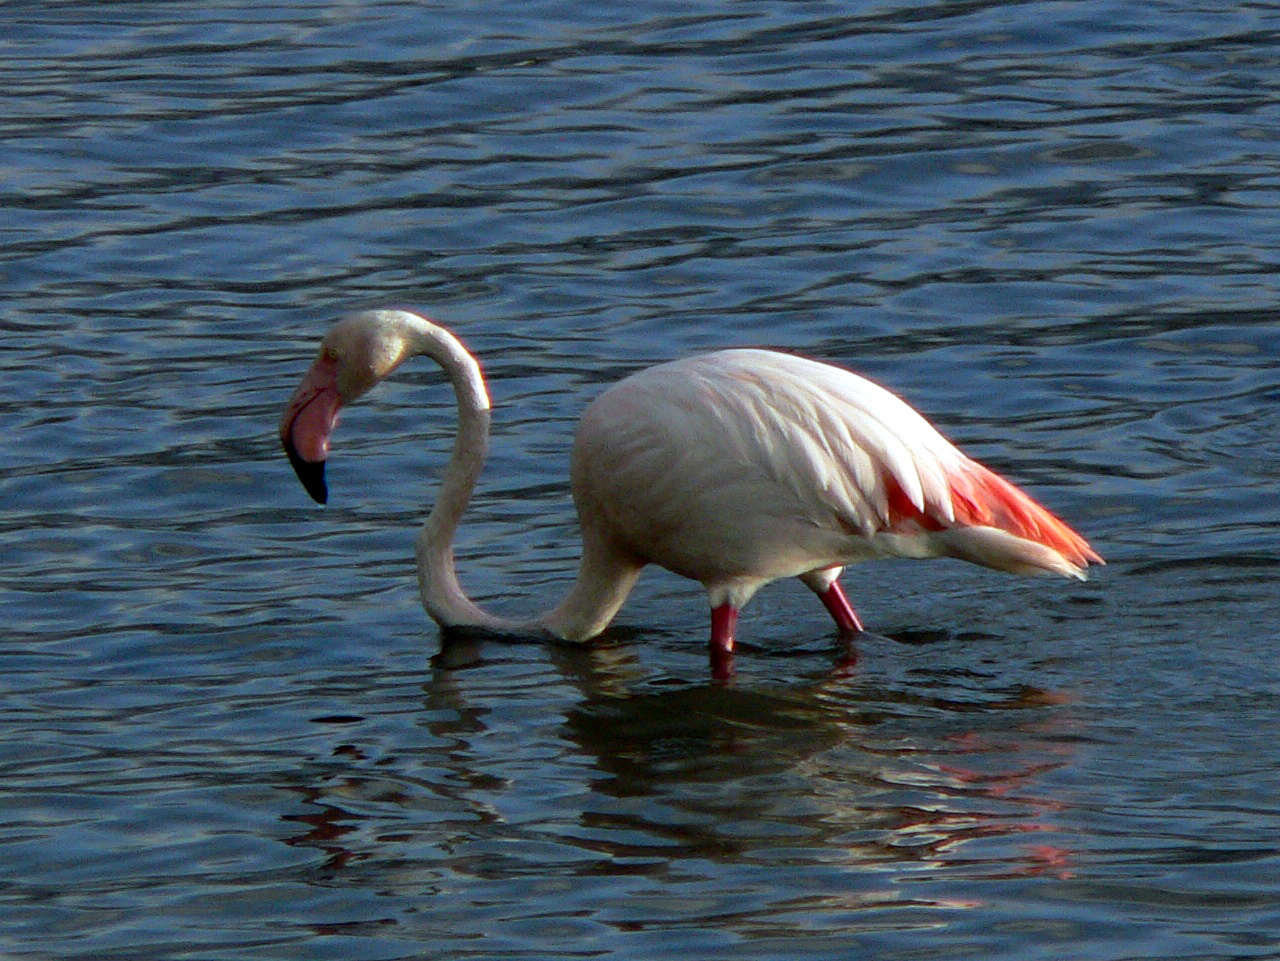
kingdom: Animalia
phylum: Chordata
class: Aves
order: Phoenicopteriformes
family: Phoenicopteridae
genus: Phoenicopterus
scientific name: Phoenicopterus roseus
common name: Greater flamingo
